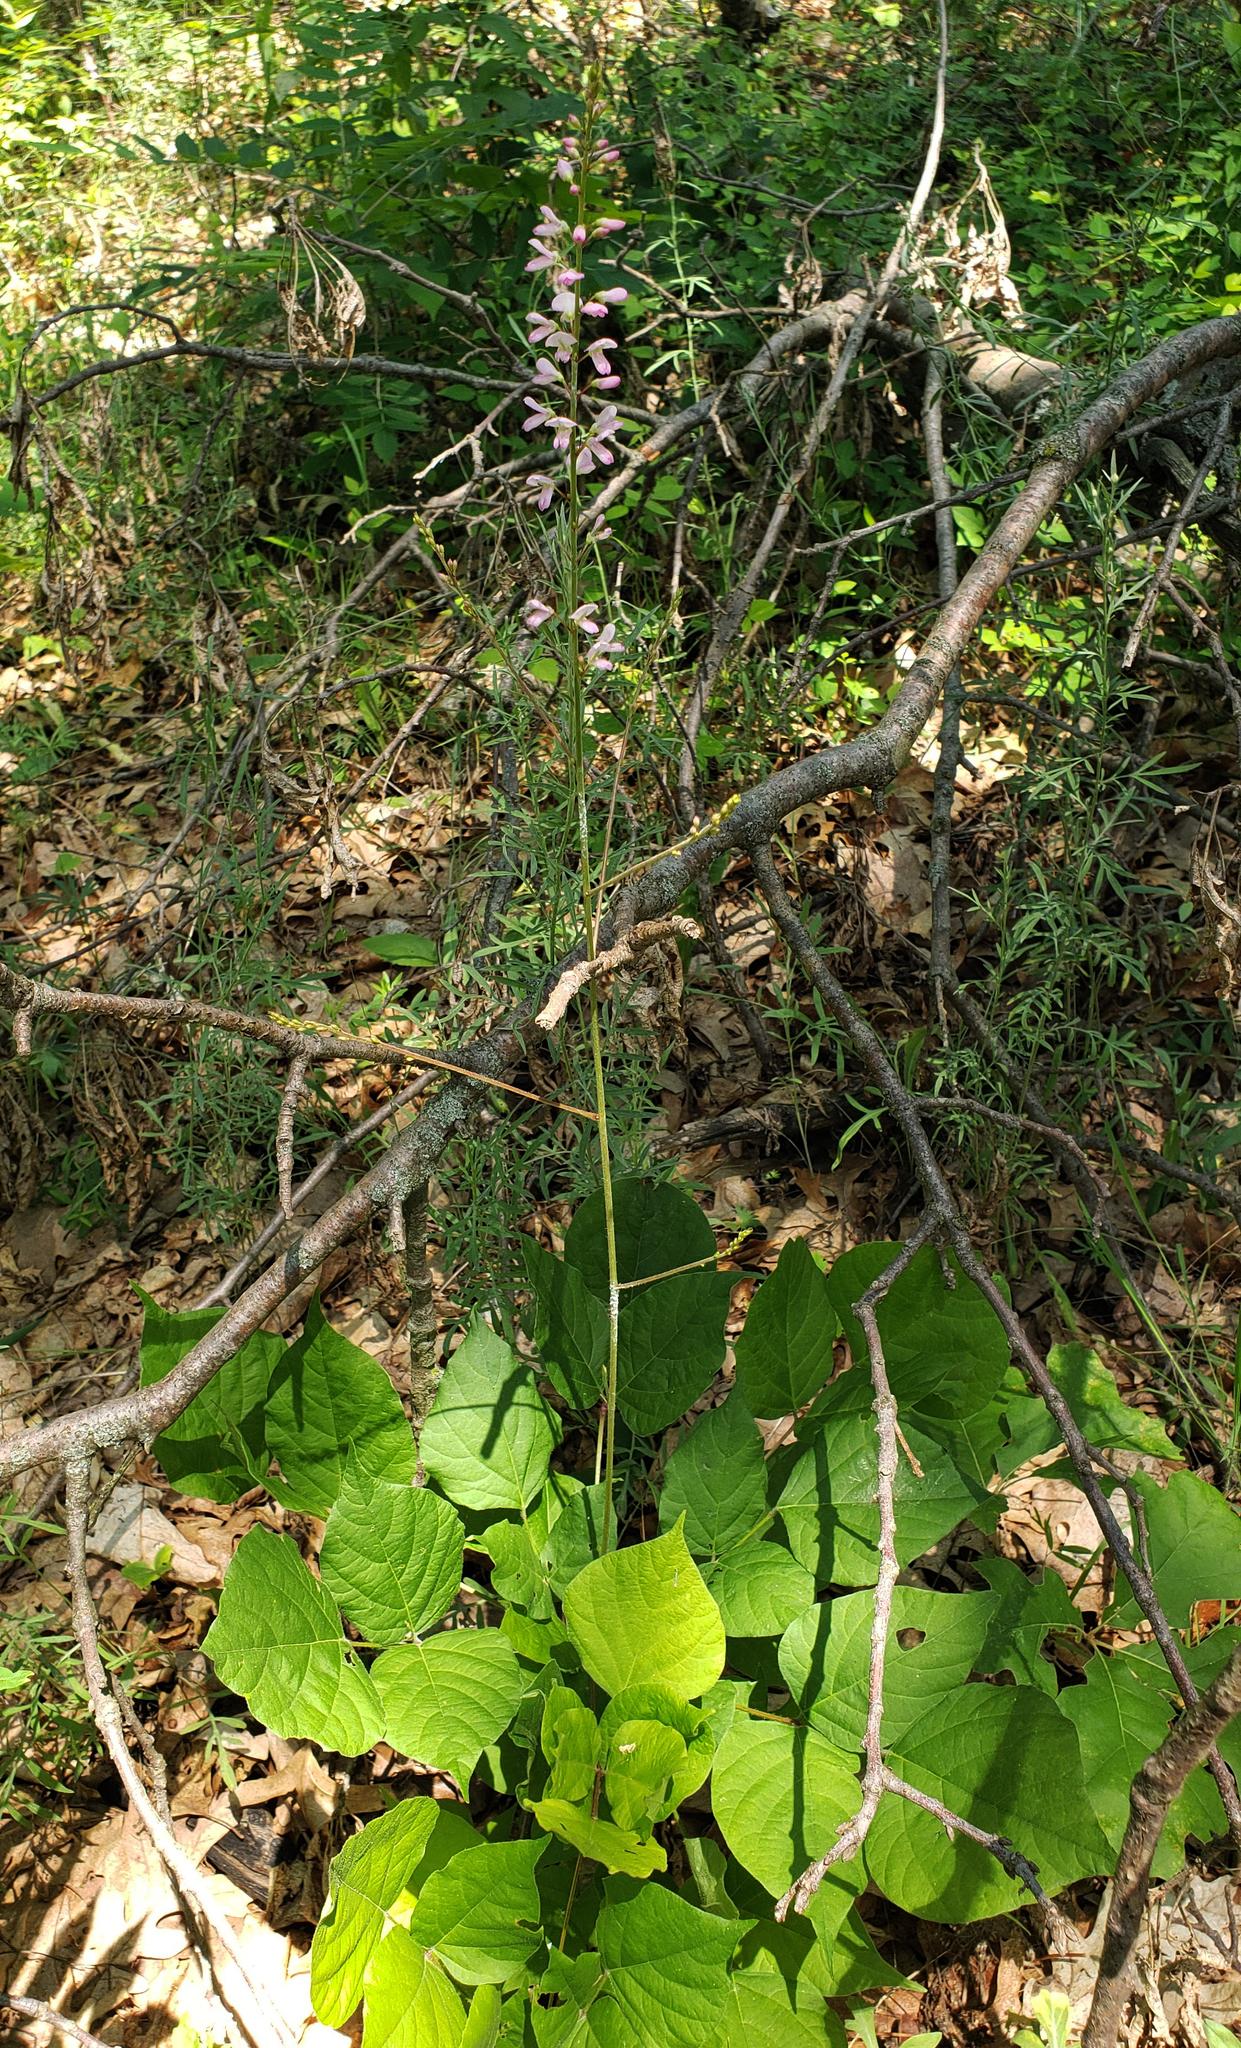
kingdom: Plantae
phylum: Tracheophyta
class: Magnoliopsida
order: Fabales
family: Fabaceae
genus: Hylodesmum
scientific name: Hylodesmum glutinosum
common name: Clustered-leaved tick-trefoil
